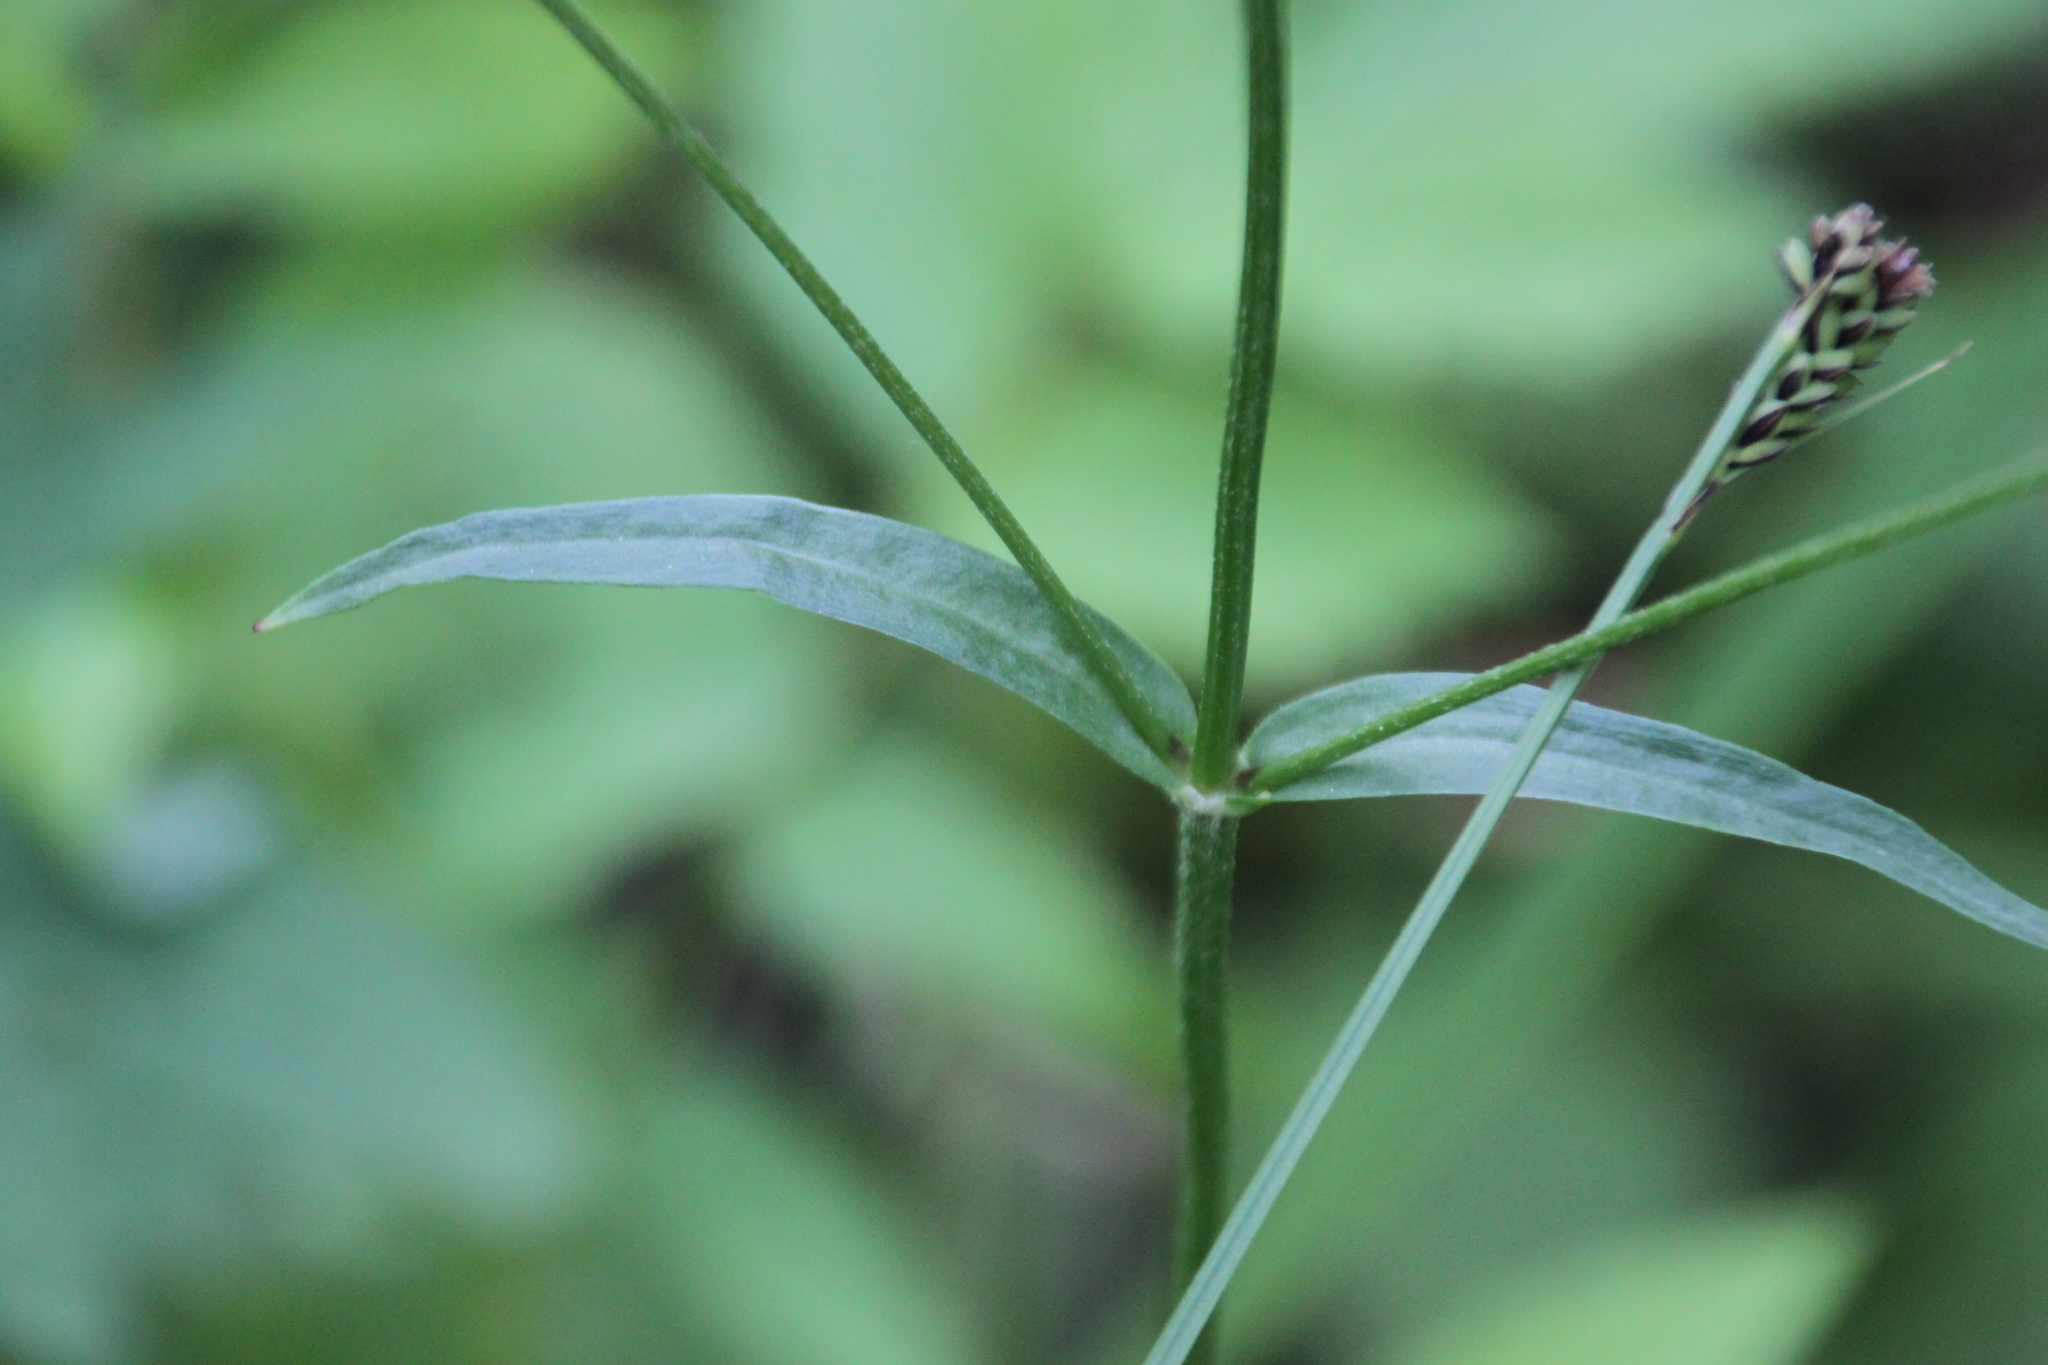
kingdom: Plantae
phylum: Tracheophyta
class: Magnoliopsida
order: Caryophyllales
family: Caryophyllaceae
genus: Silene
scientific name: Silene flos-cuculi
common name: Ragged-robin
